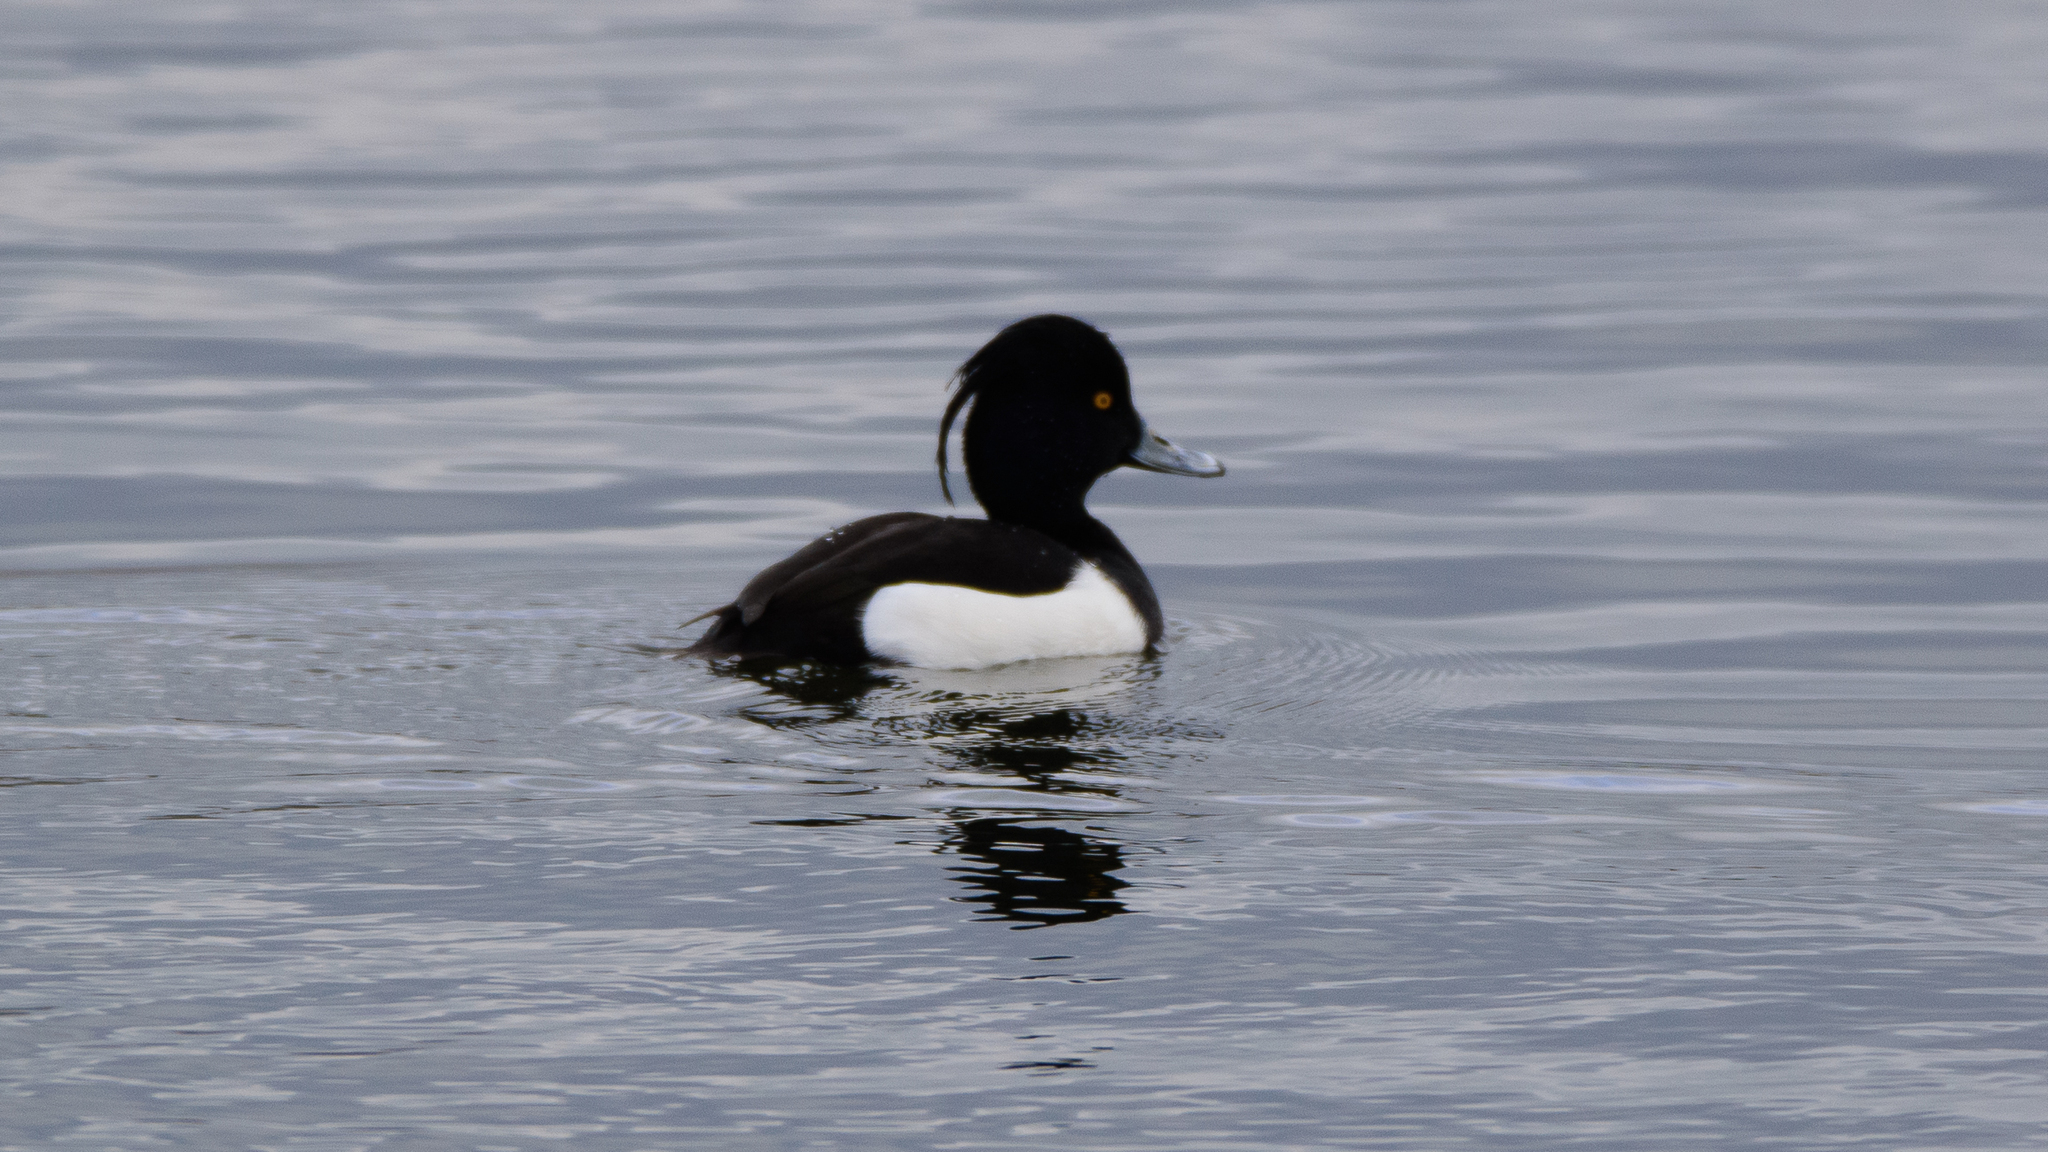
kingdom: Animalia
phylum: Chordata
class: Aves
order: Anseriformes
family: Anatidae
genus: Aythya
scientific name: Aythya fuligula
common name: Tufted duck
